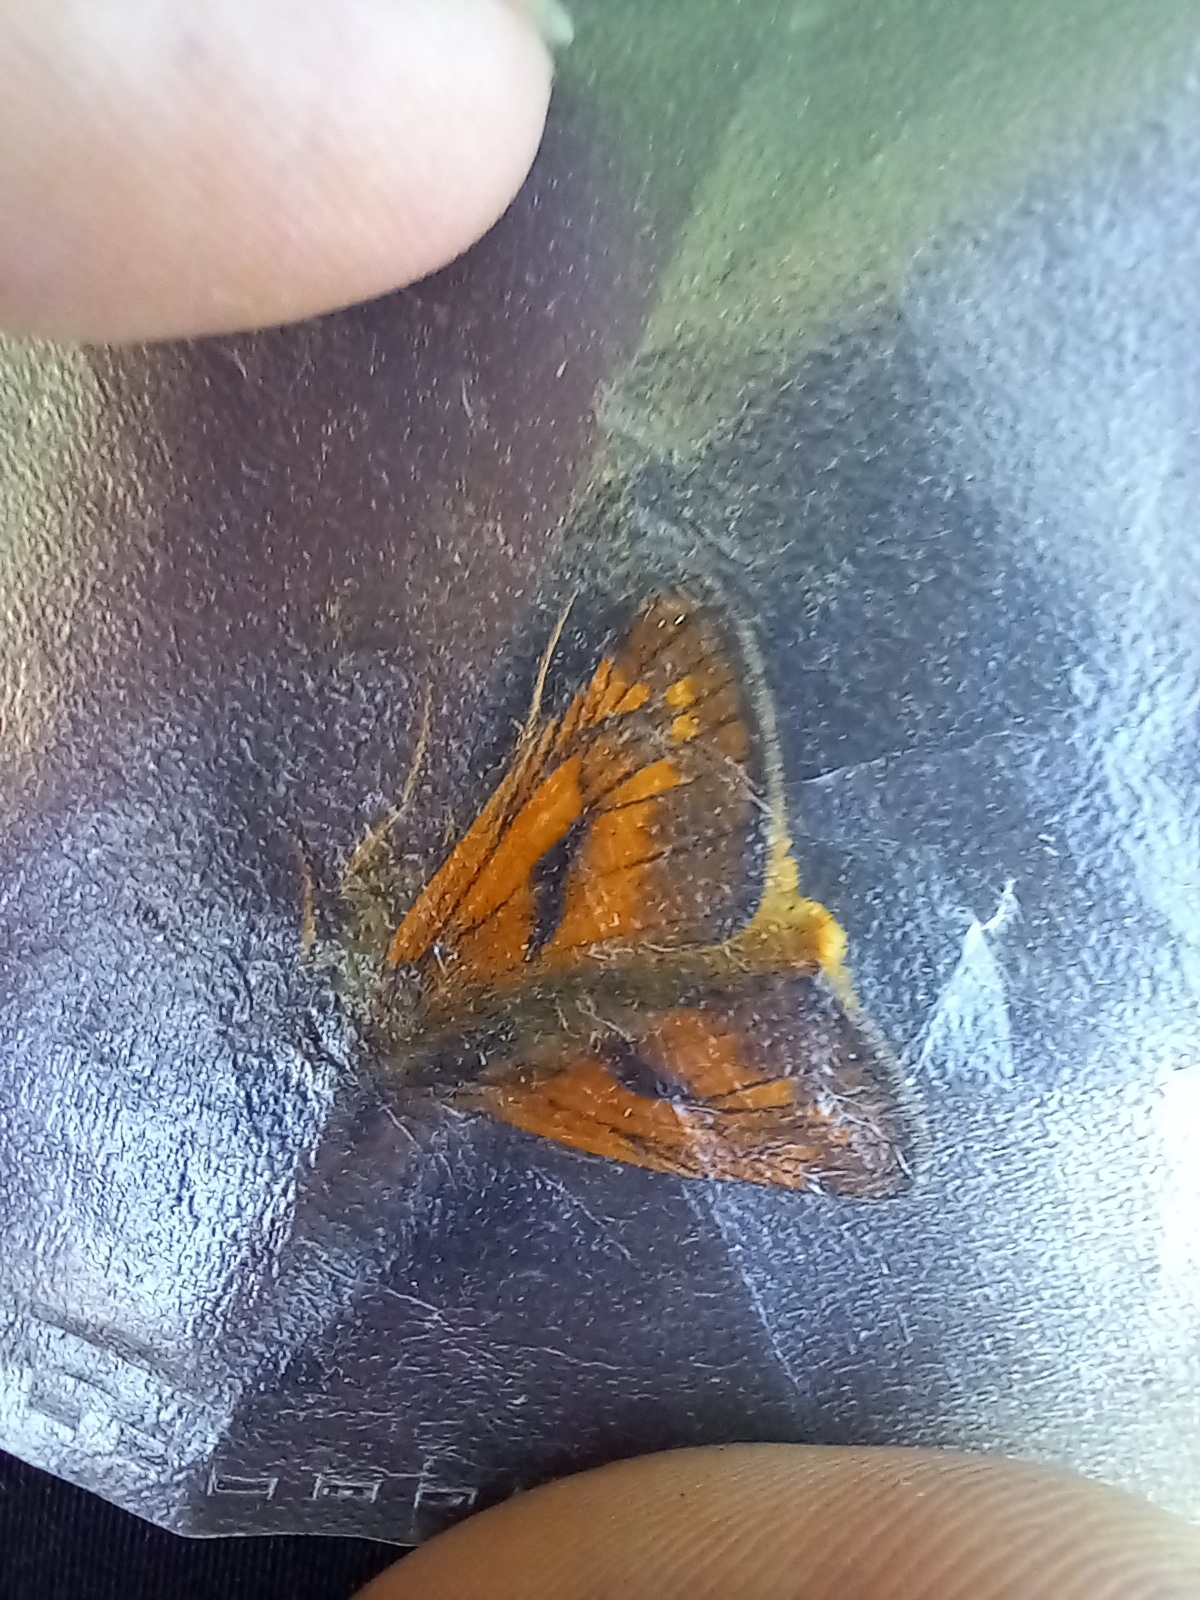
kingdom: Animalia
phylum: Arthropoda
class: Insecta
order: Lepidoptera
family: Hesperiidae
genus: Ochlodes
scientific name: Ochlodes venata
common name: Large skipper
